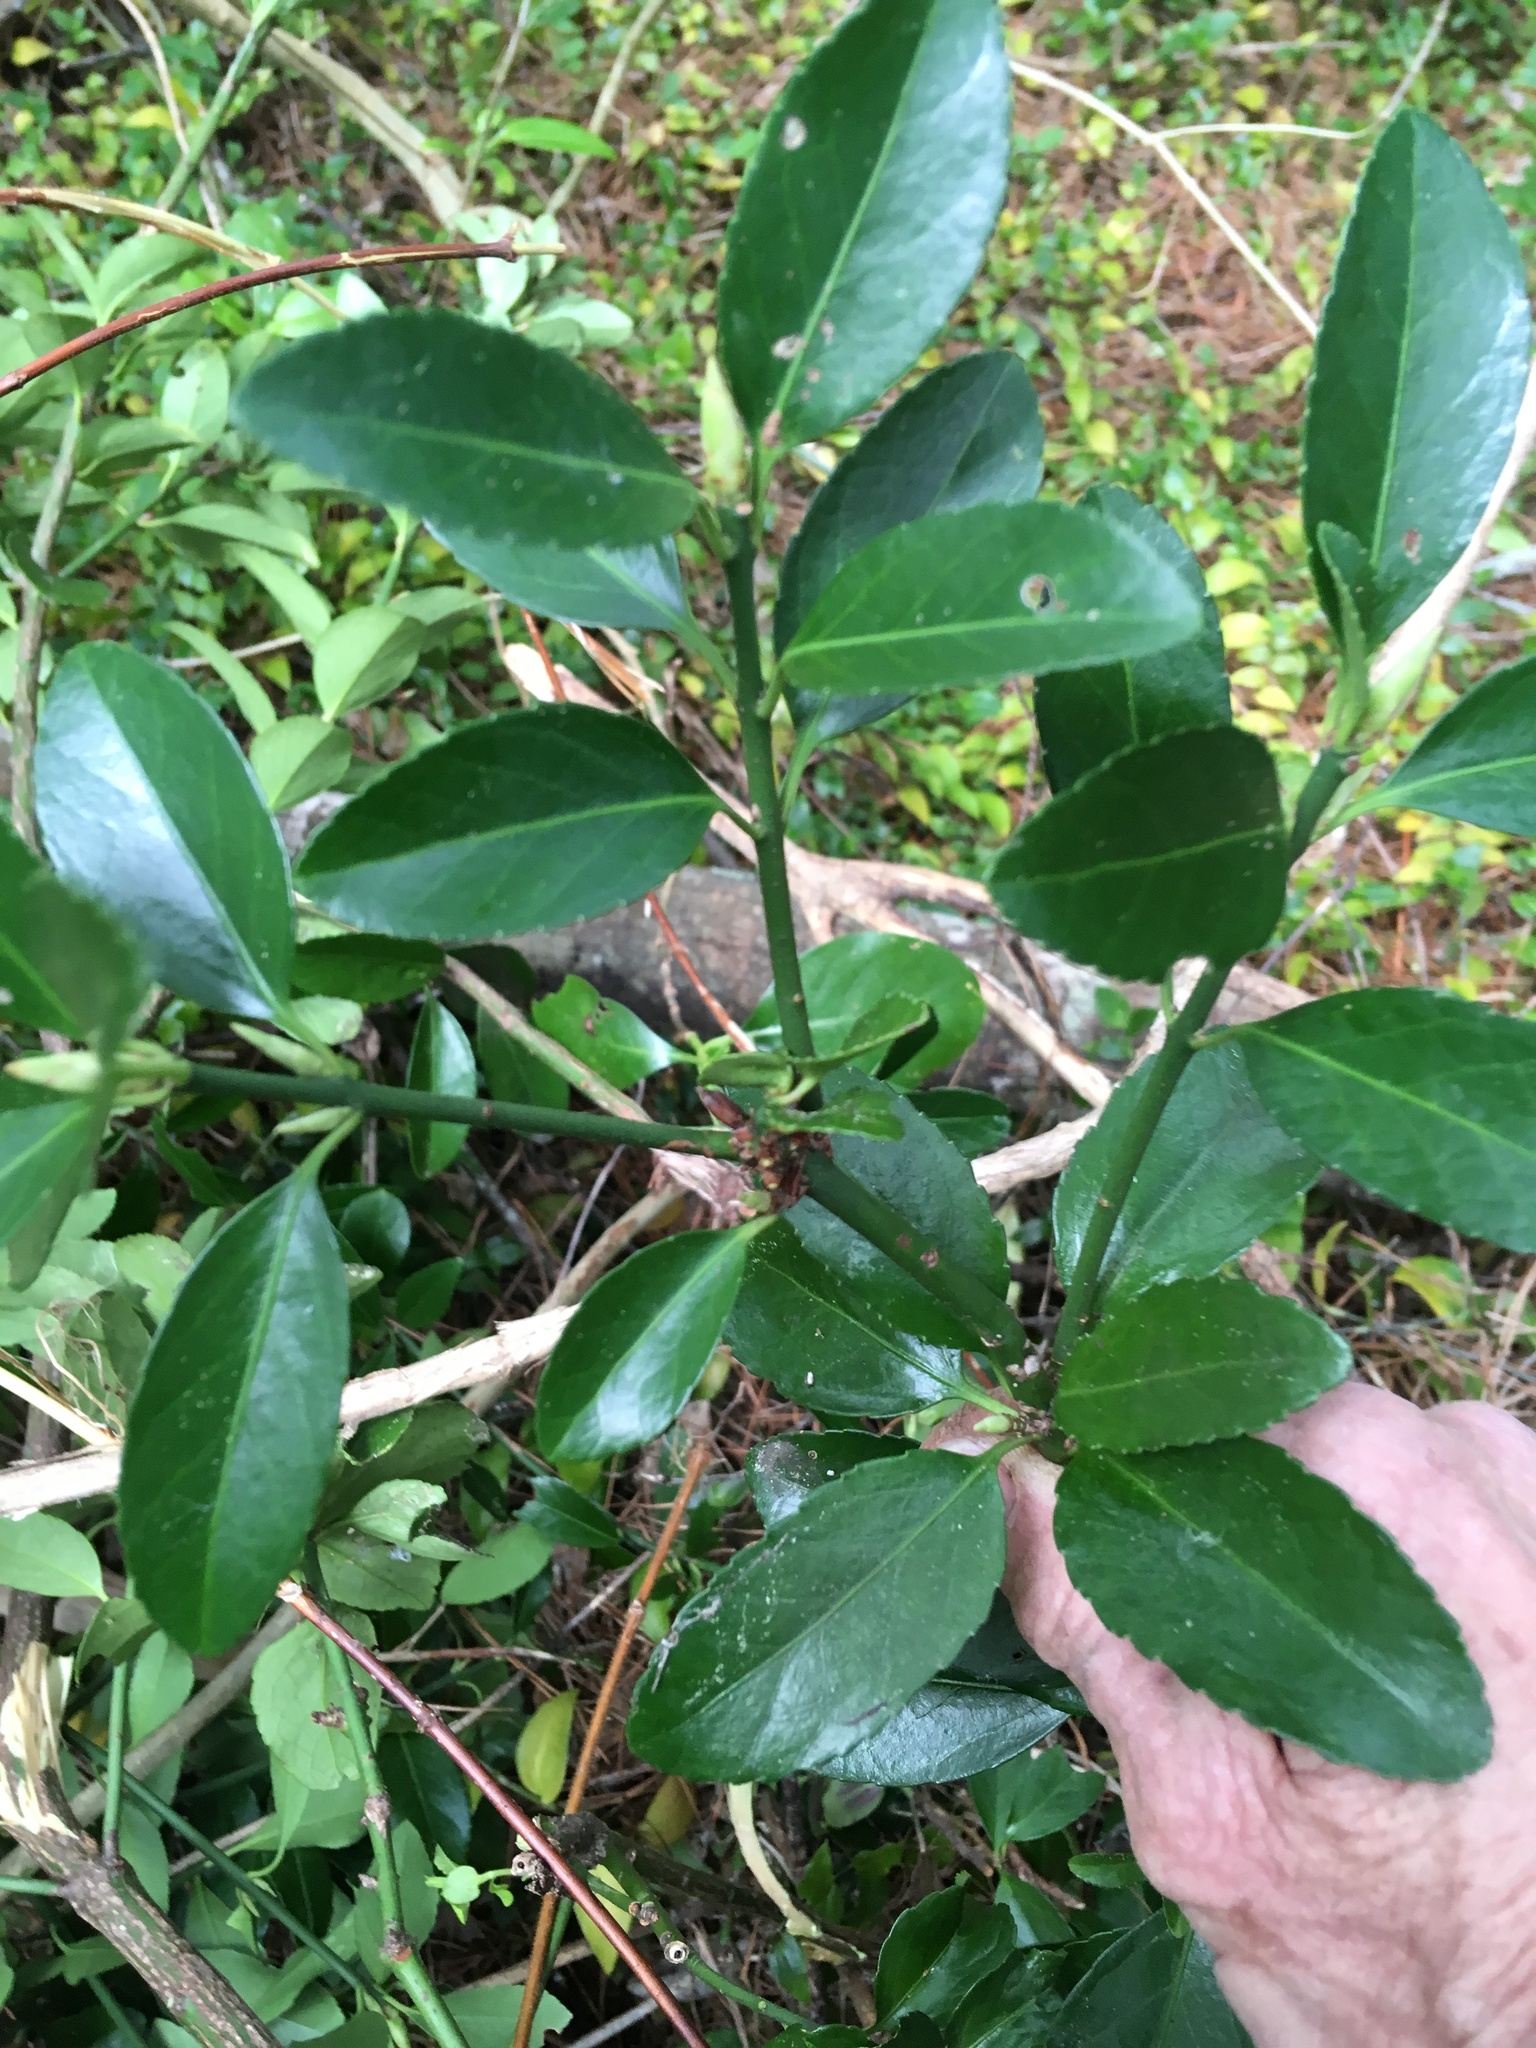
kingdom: Plantae
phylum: Tracheophyta
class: Magnoliopsida
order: Celastrales
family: Celastraceae
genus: Euonymus
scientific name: Euonymus japonicus
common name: Japanese spindletree
